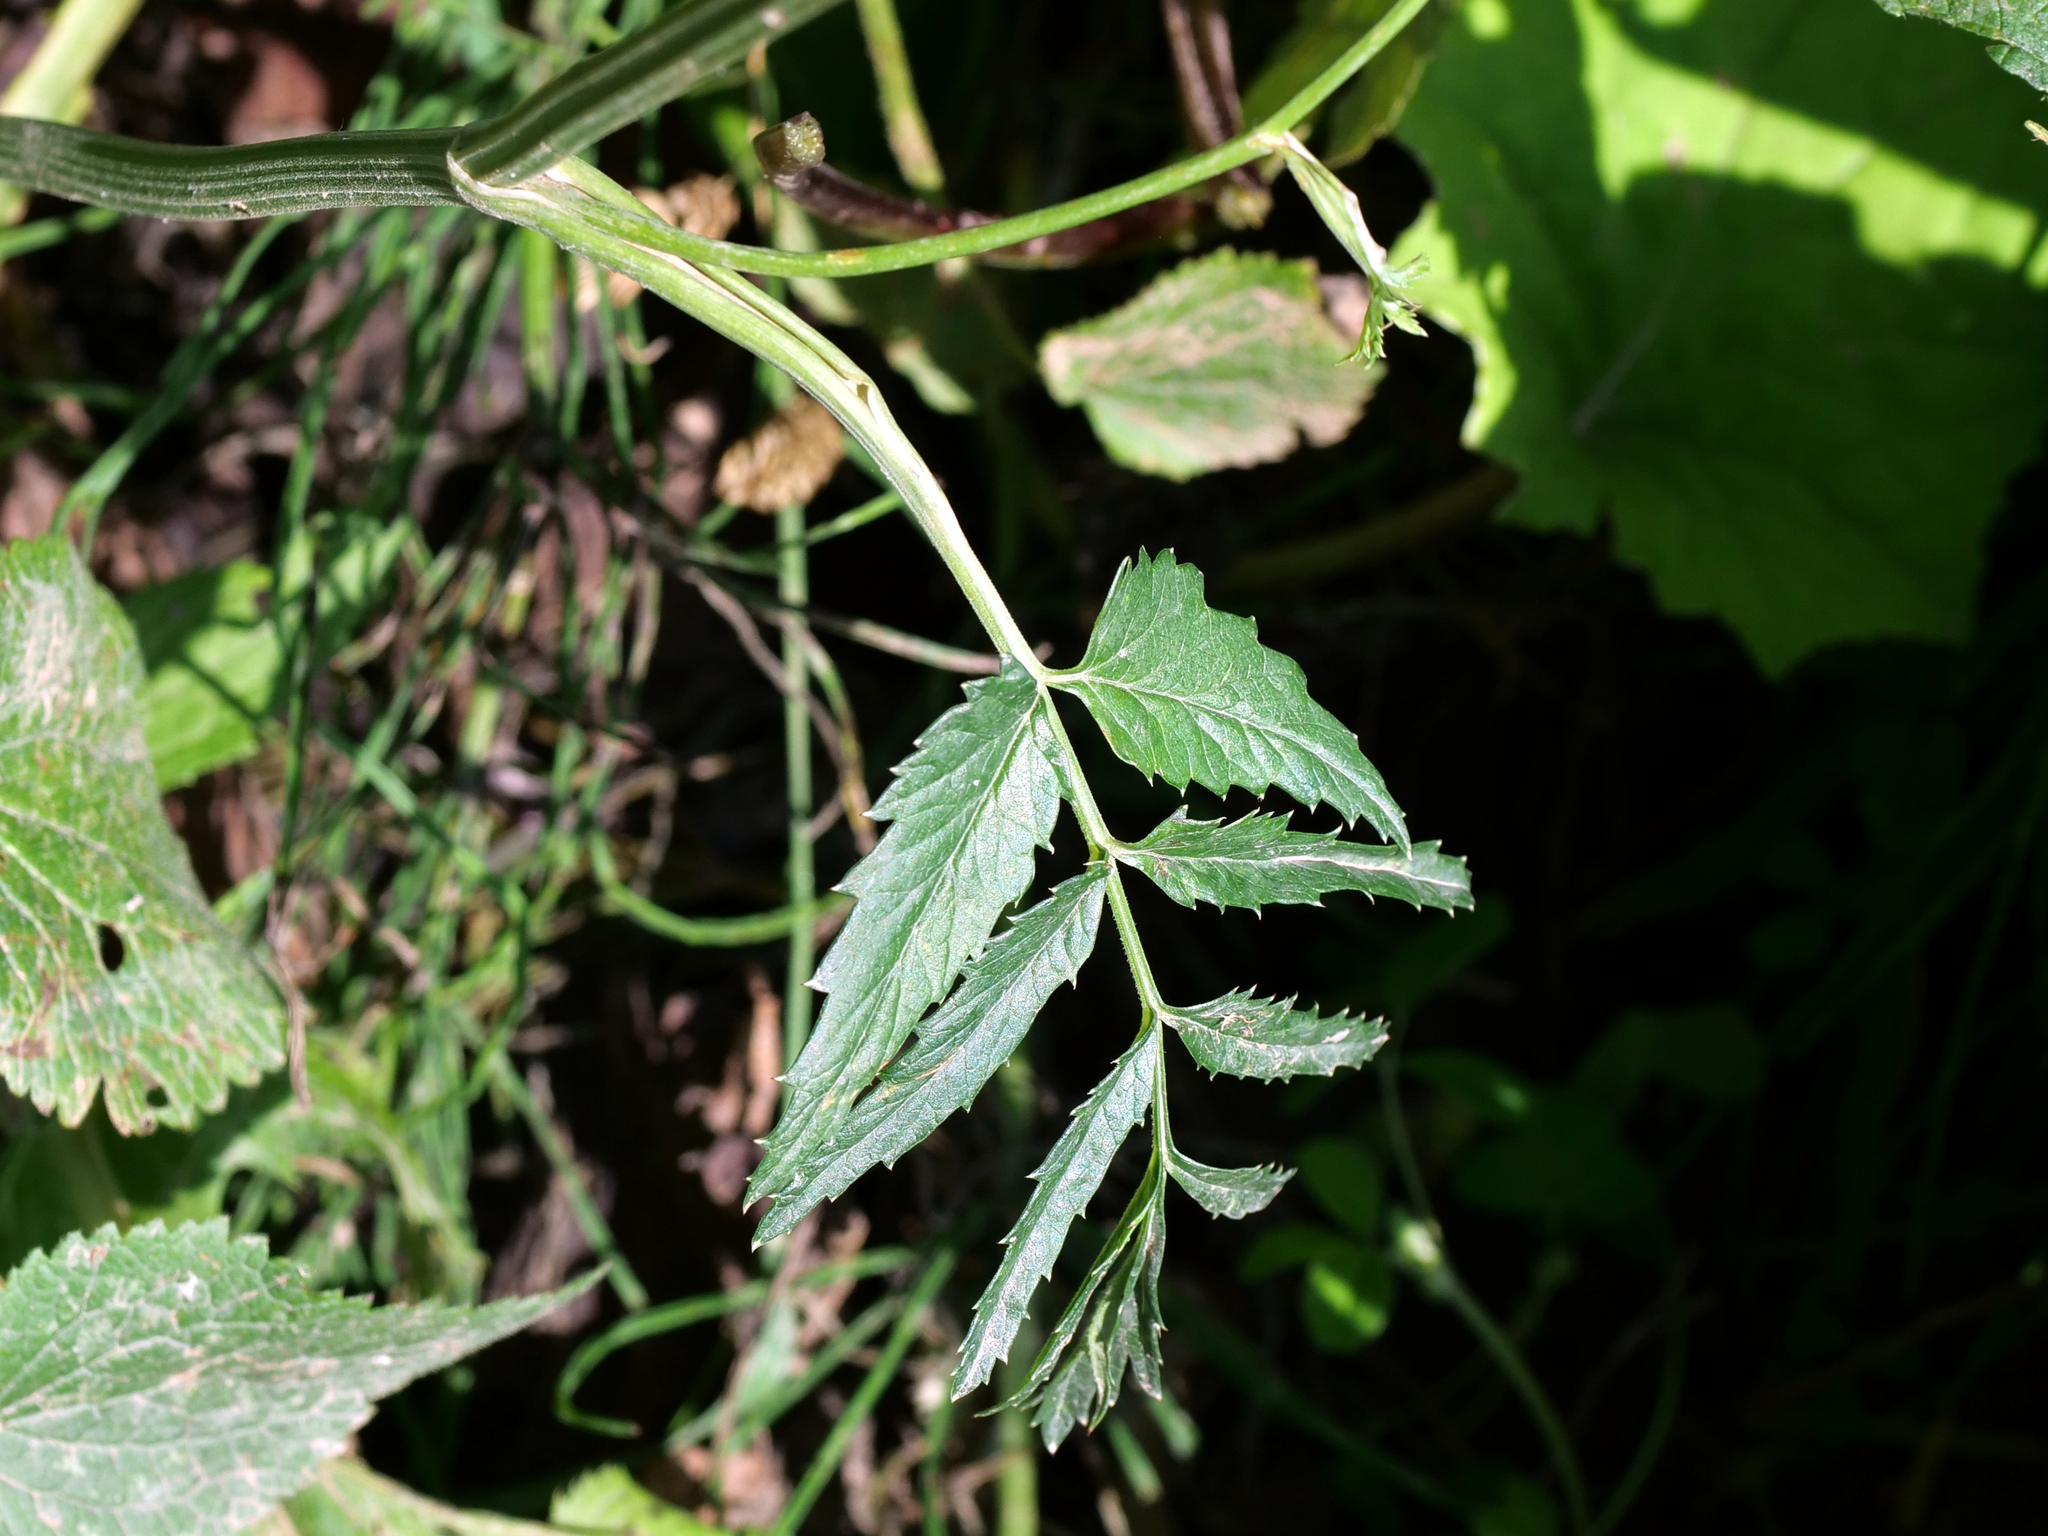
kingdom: Plantae
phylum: Tracheophyta
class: Magnoliopsida
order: Apiales
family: Apiaceae
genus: Pimpinella
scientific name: Pimpinella major
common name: Greater burnet-saxifrage
